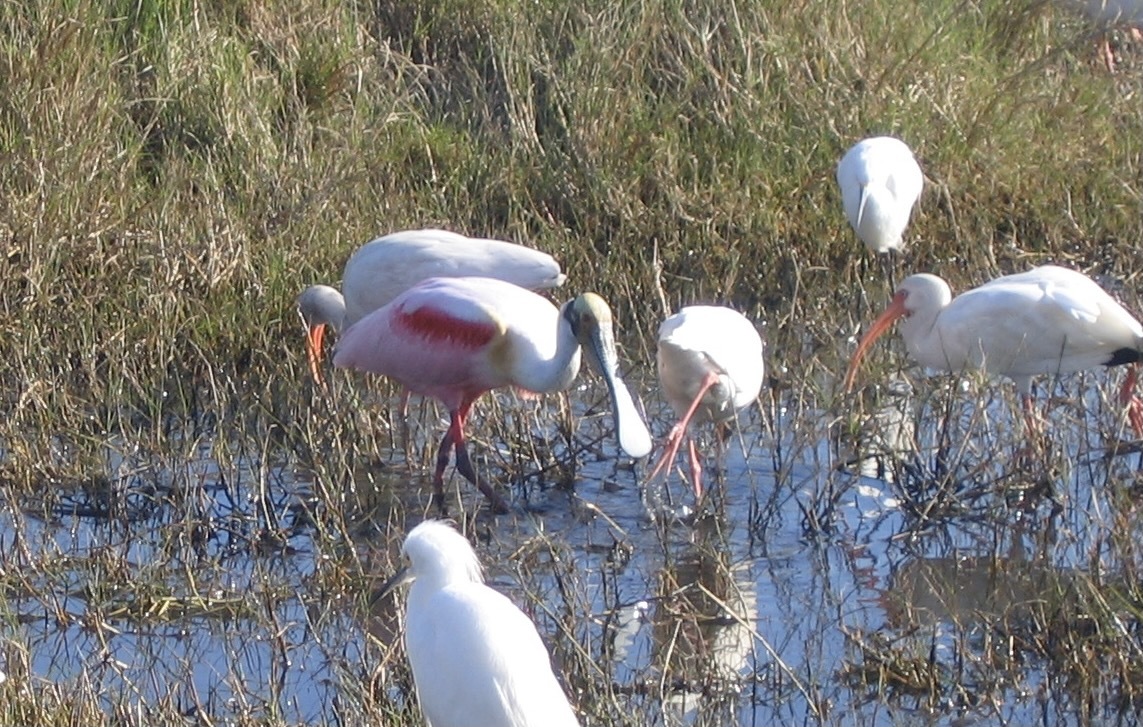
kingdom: Animalia
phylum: Chordata
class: Aves
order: Pelecaniformes
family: Threskiornithidae
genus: Platalea
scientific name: Platalea ajaja
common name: Roseate spoonbill
